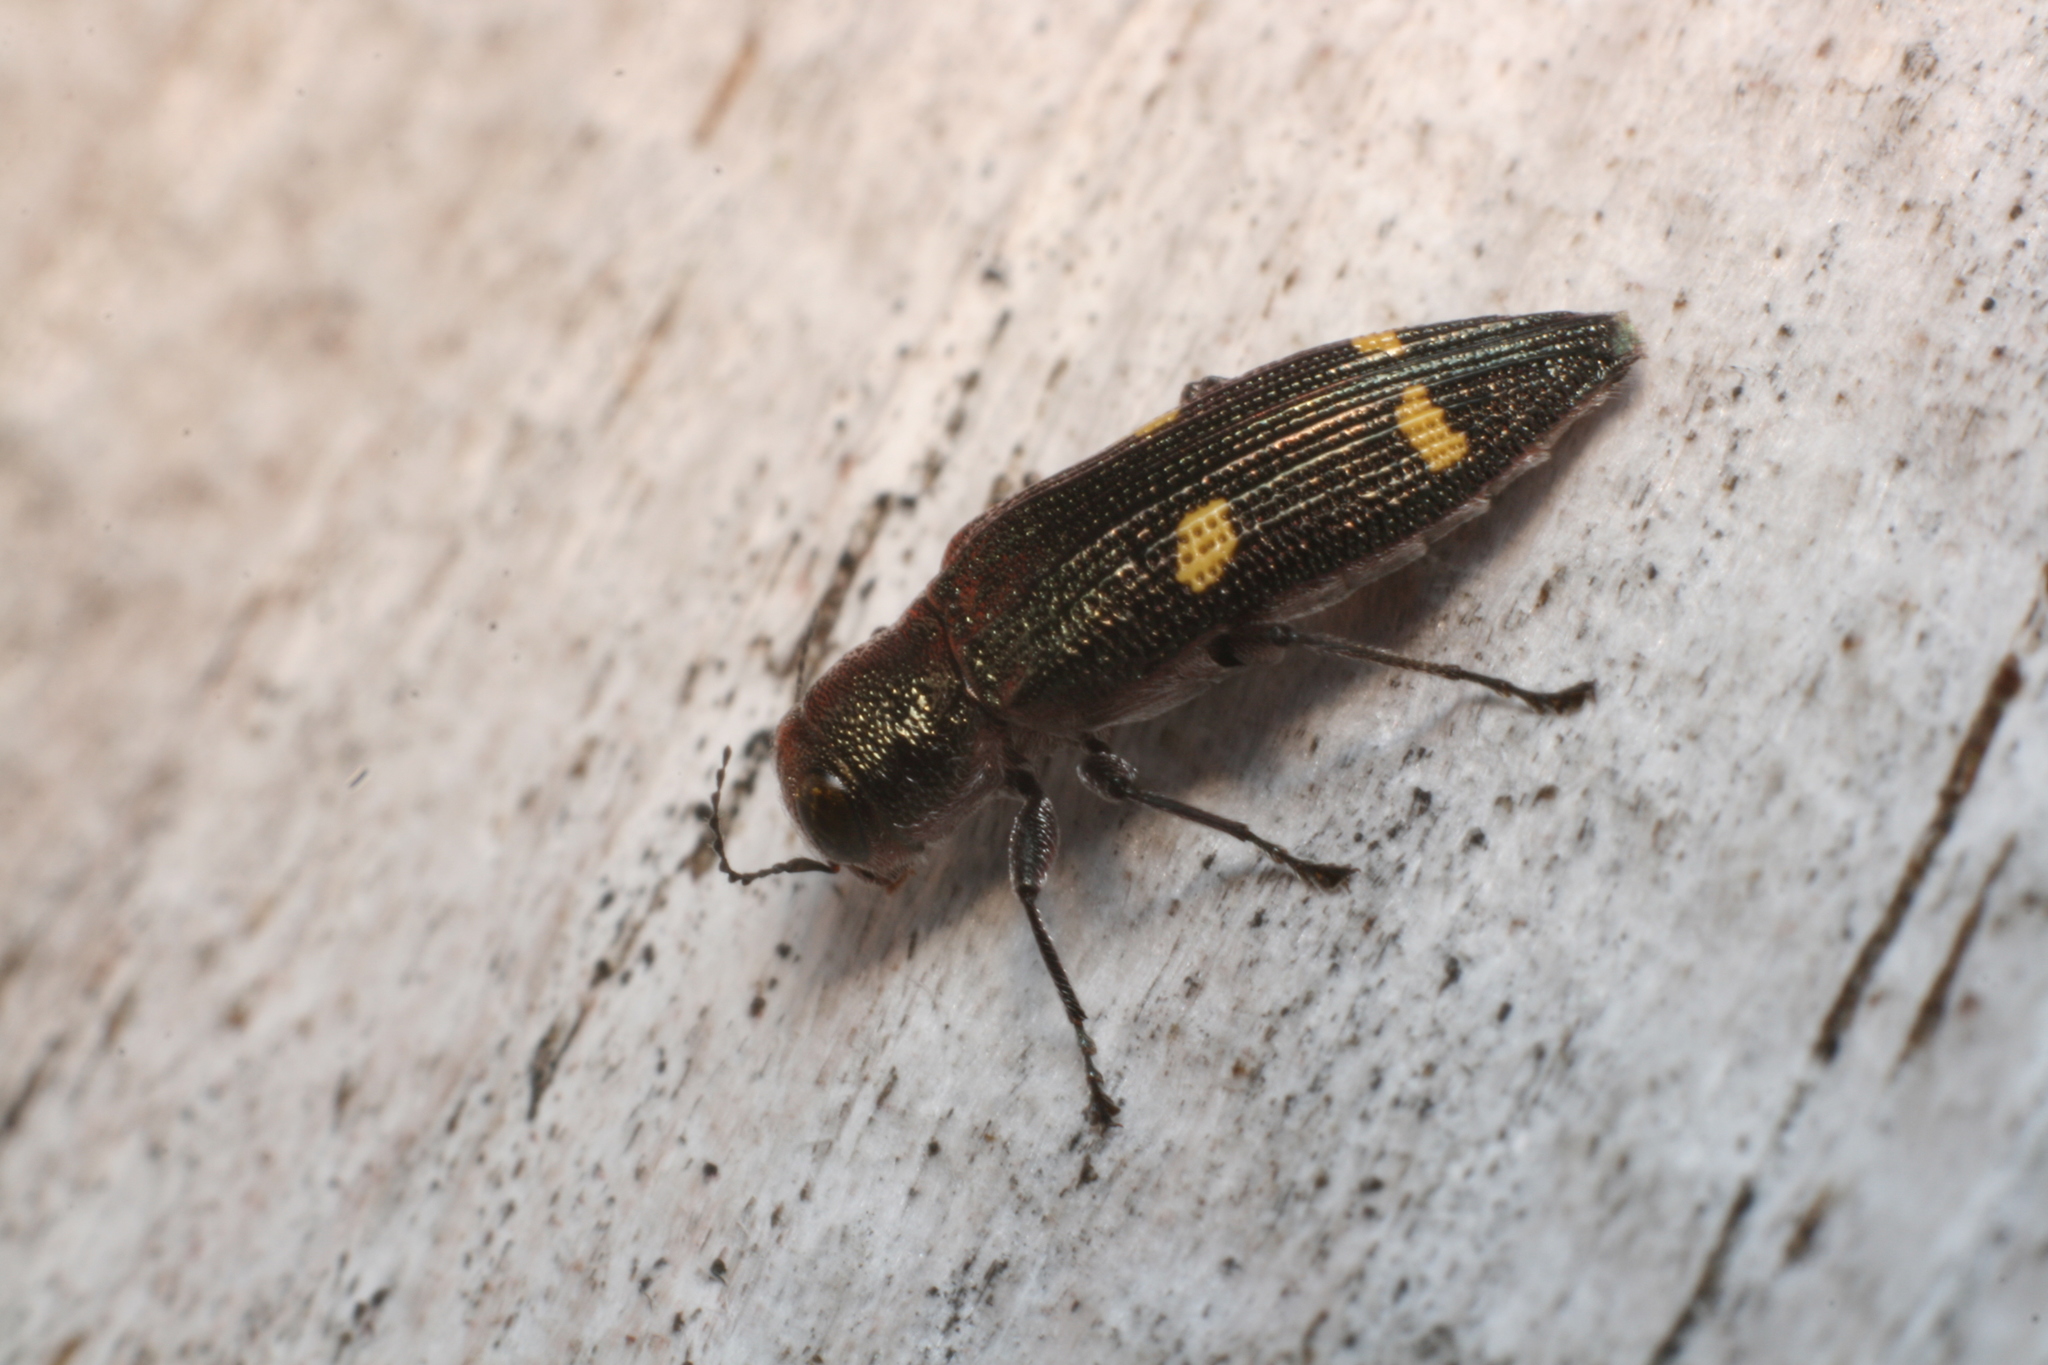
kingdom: Animalia
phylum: Arthropoda
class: Insecta
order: Coleoptera
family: Buprestidae
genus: Nascioides
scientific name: Nascioides enysi
